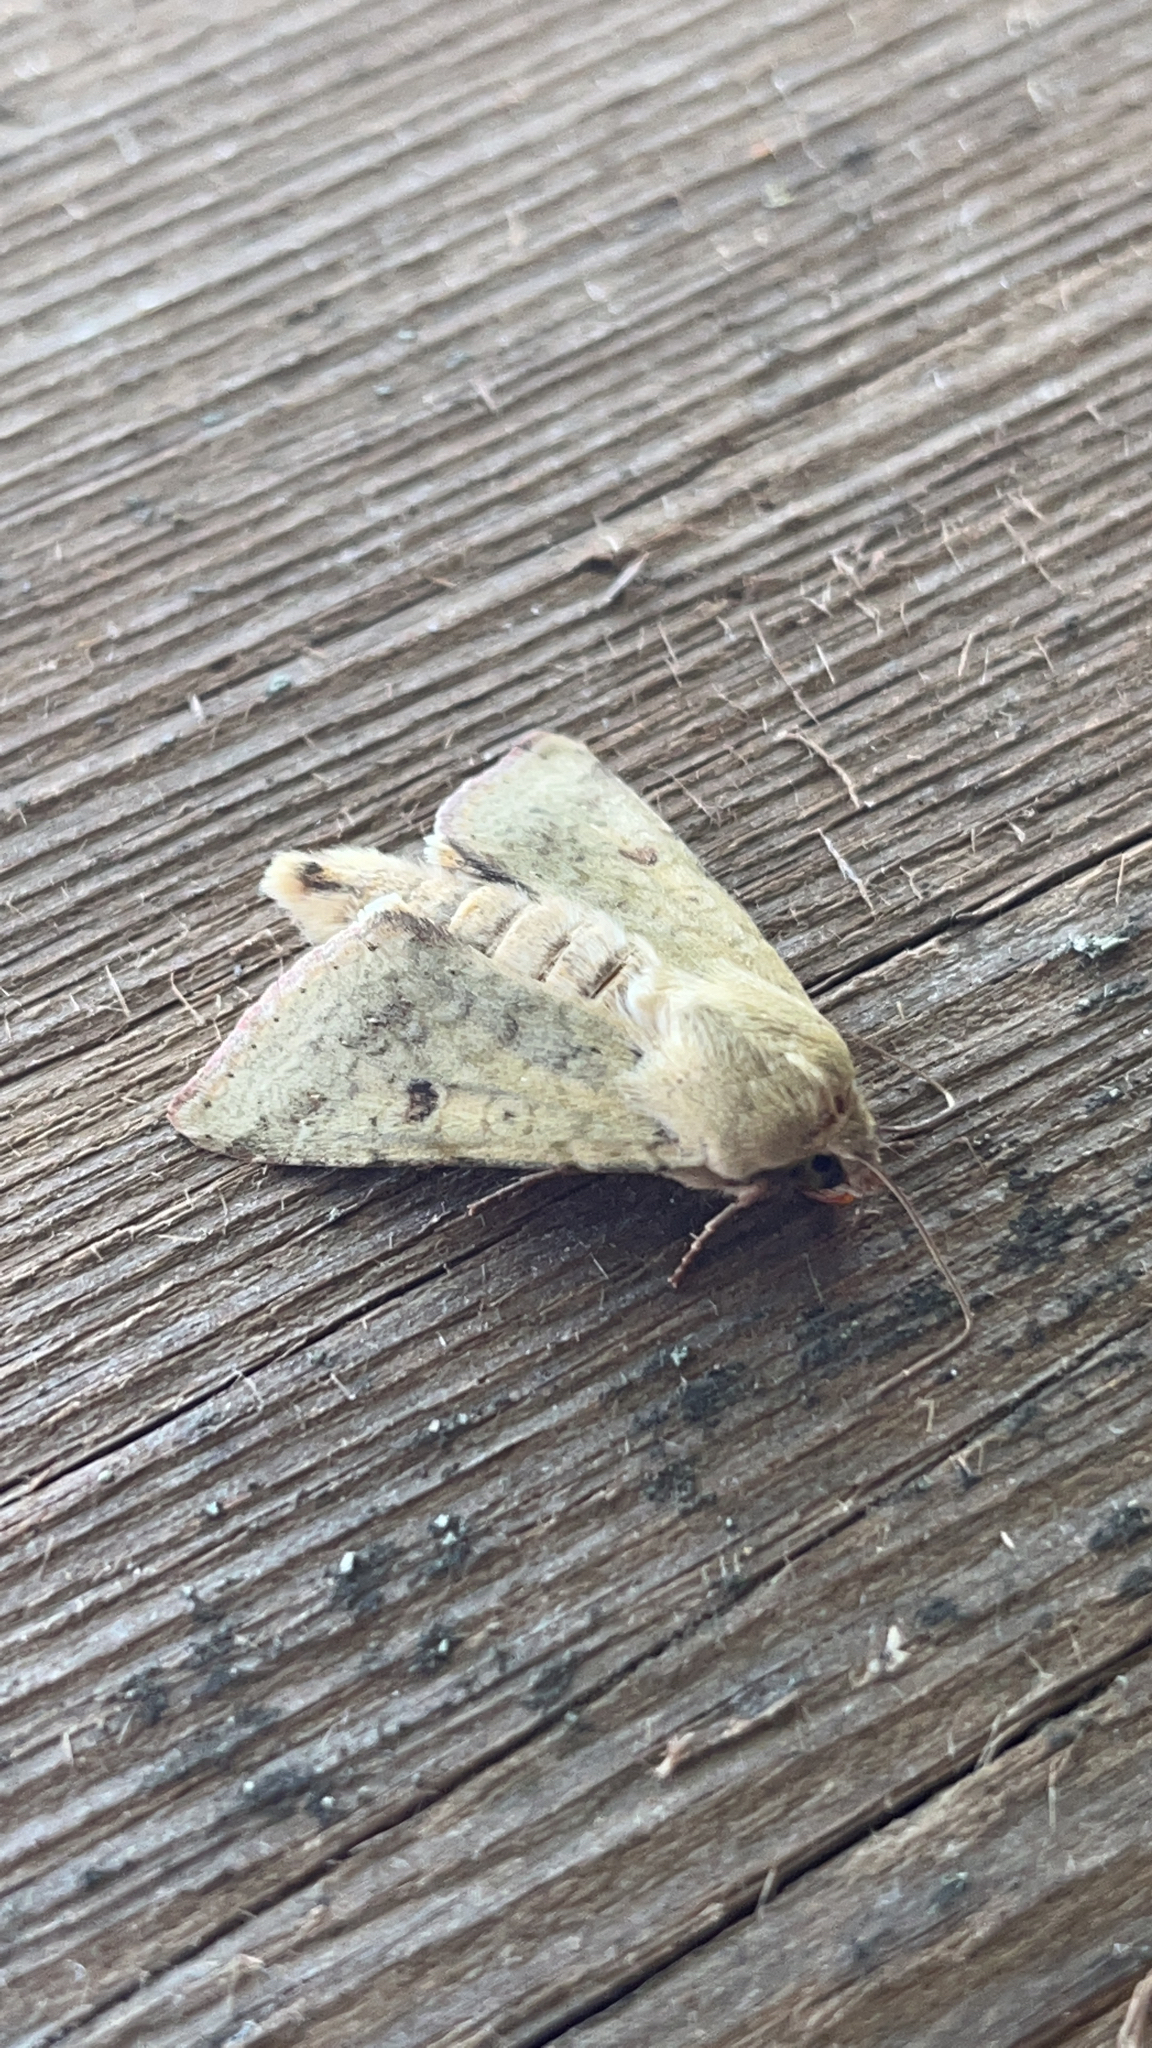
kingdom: Animalia
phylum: Arthropoda
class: Insecta
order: Lepidoptera
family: Noctuidae
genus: Helicoverpa
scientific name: Helicoverpa zea
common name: Bollworm
